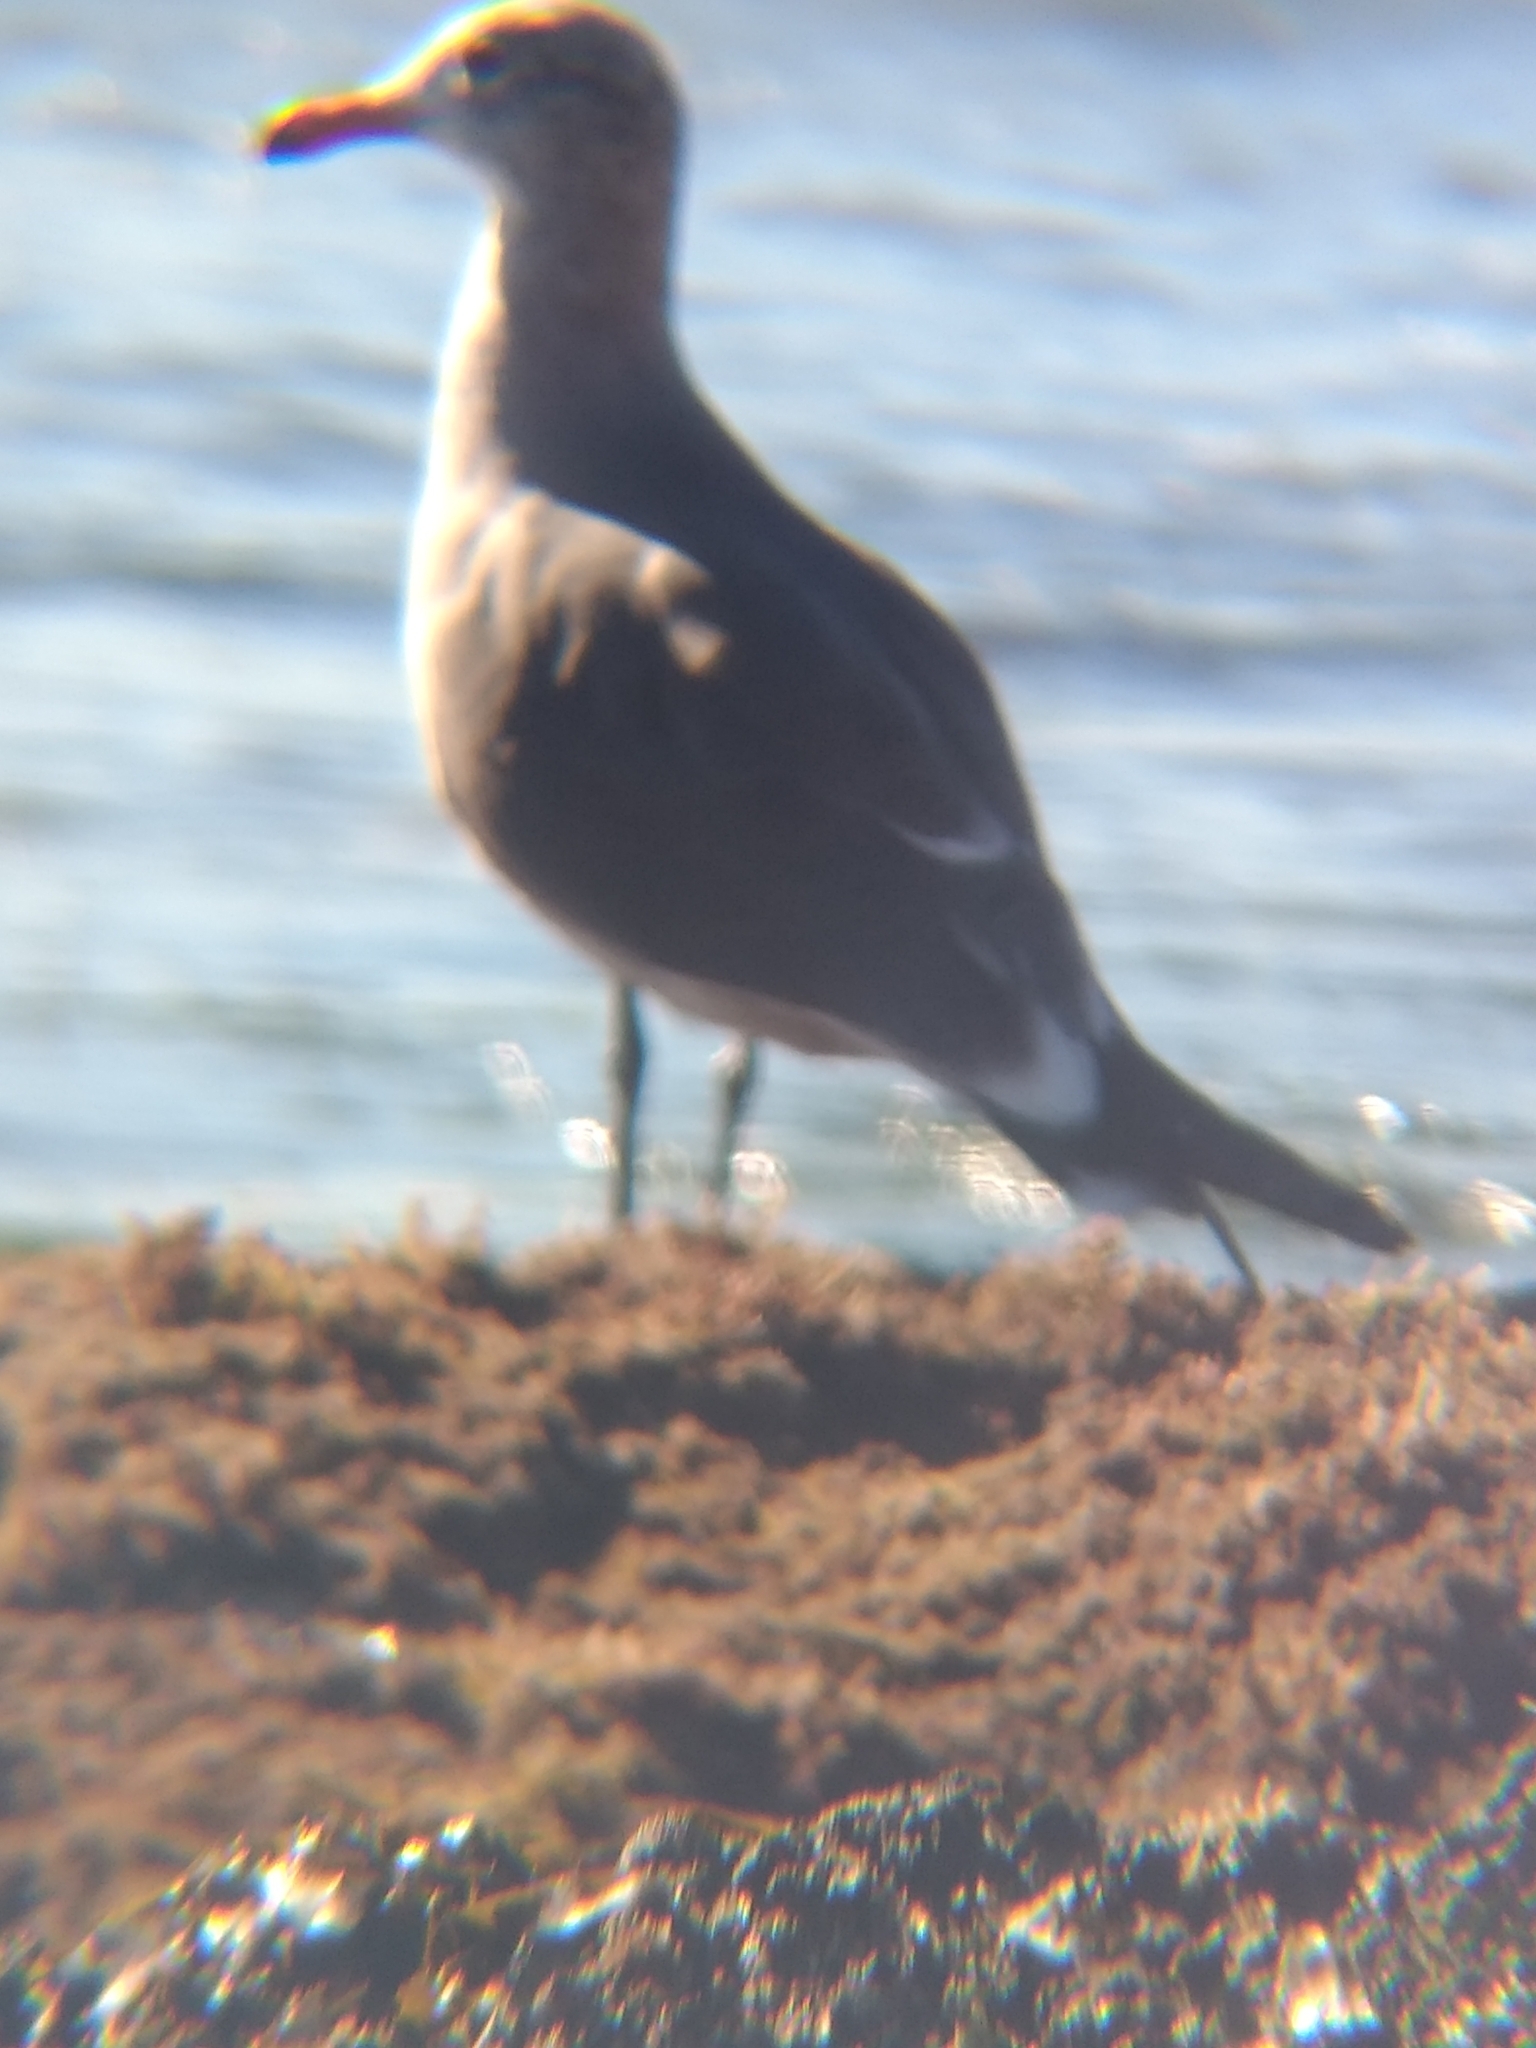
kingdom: Animalia
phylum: Chordata
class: Aves
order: Charadriiformes
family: Laridae
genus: Larus
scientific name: Larus heermanni
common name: Heermann's gull
